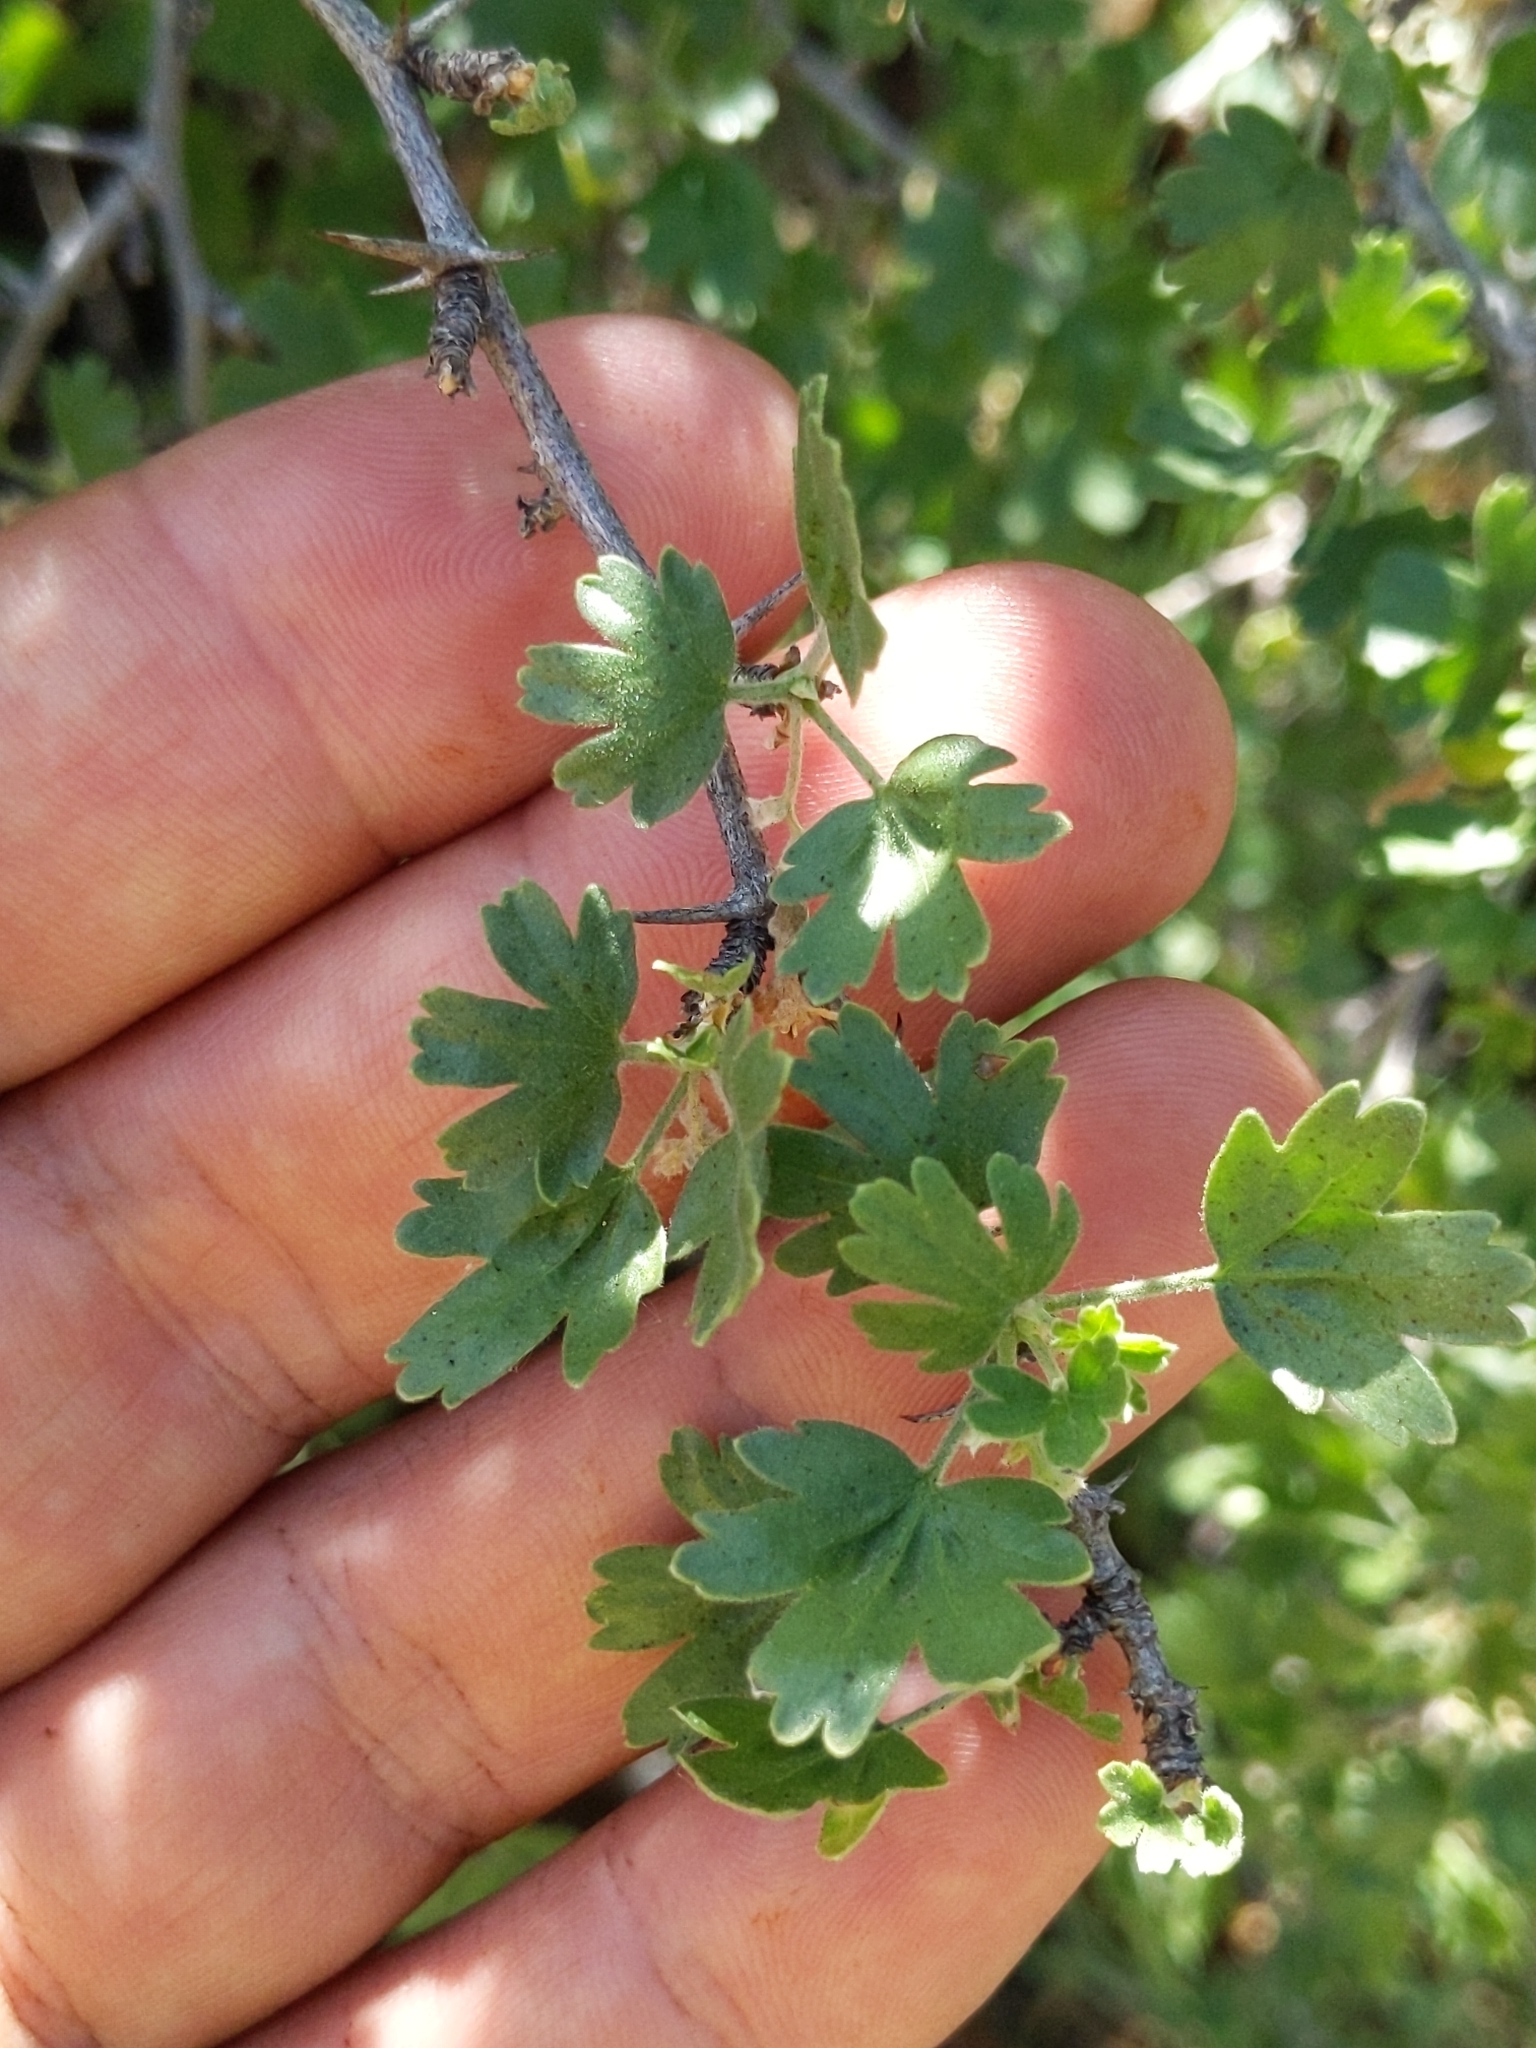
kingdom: Plantae
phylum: Tracheophyta
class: Magnoliopsida
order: Saxifragales
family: Grossulariaceae
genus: Ribes
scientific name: Ribes quercetorum
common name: Oak gooseberry
